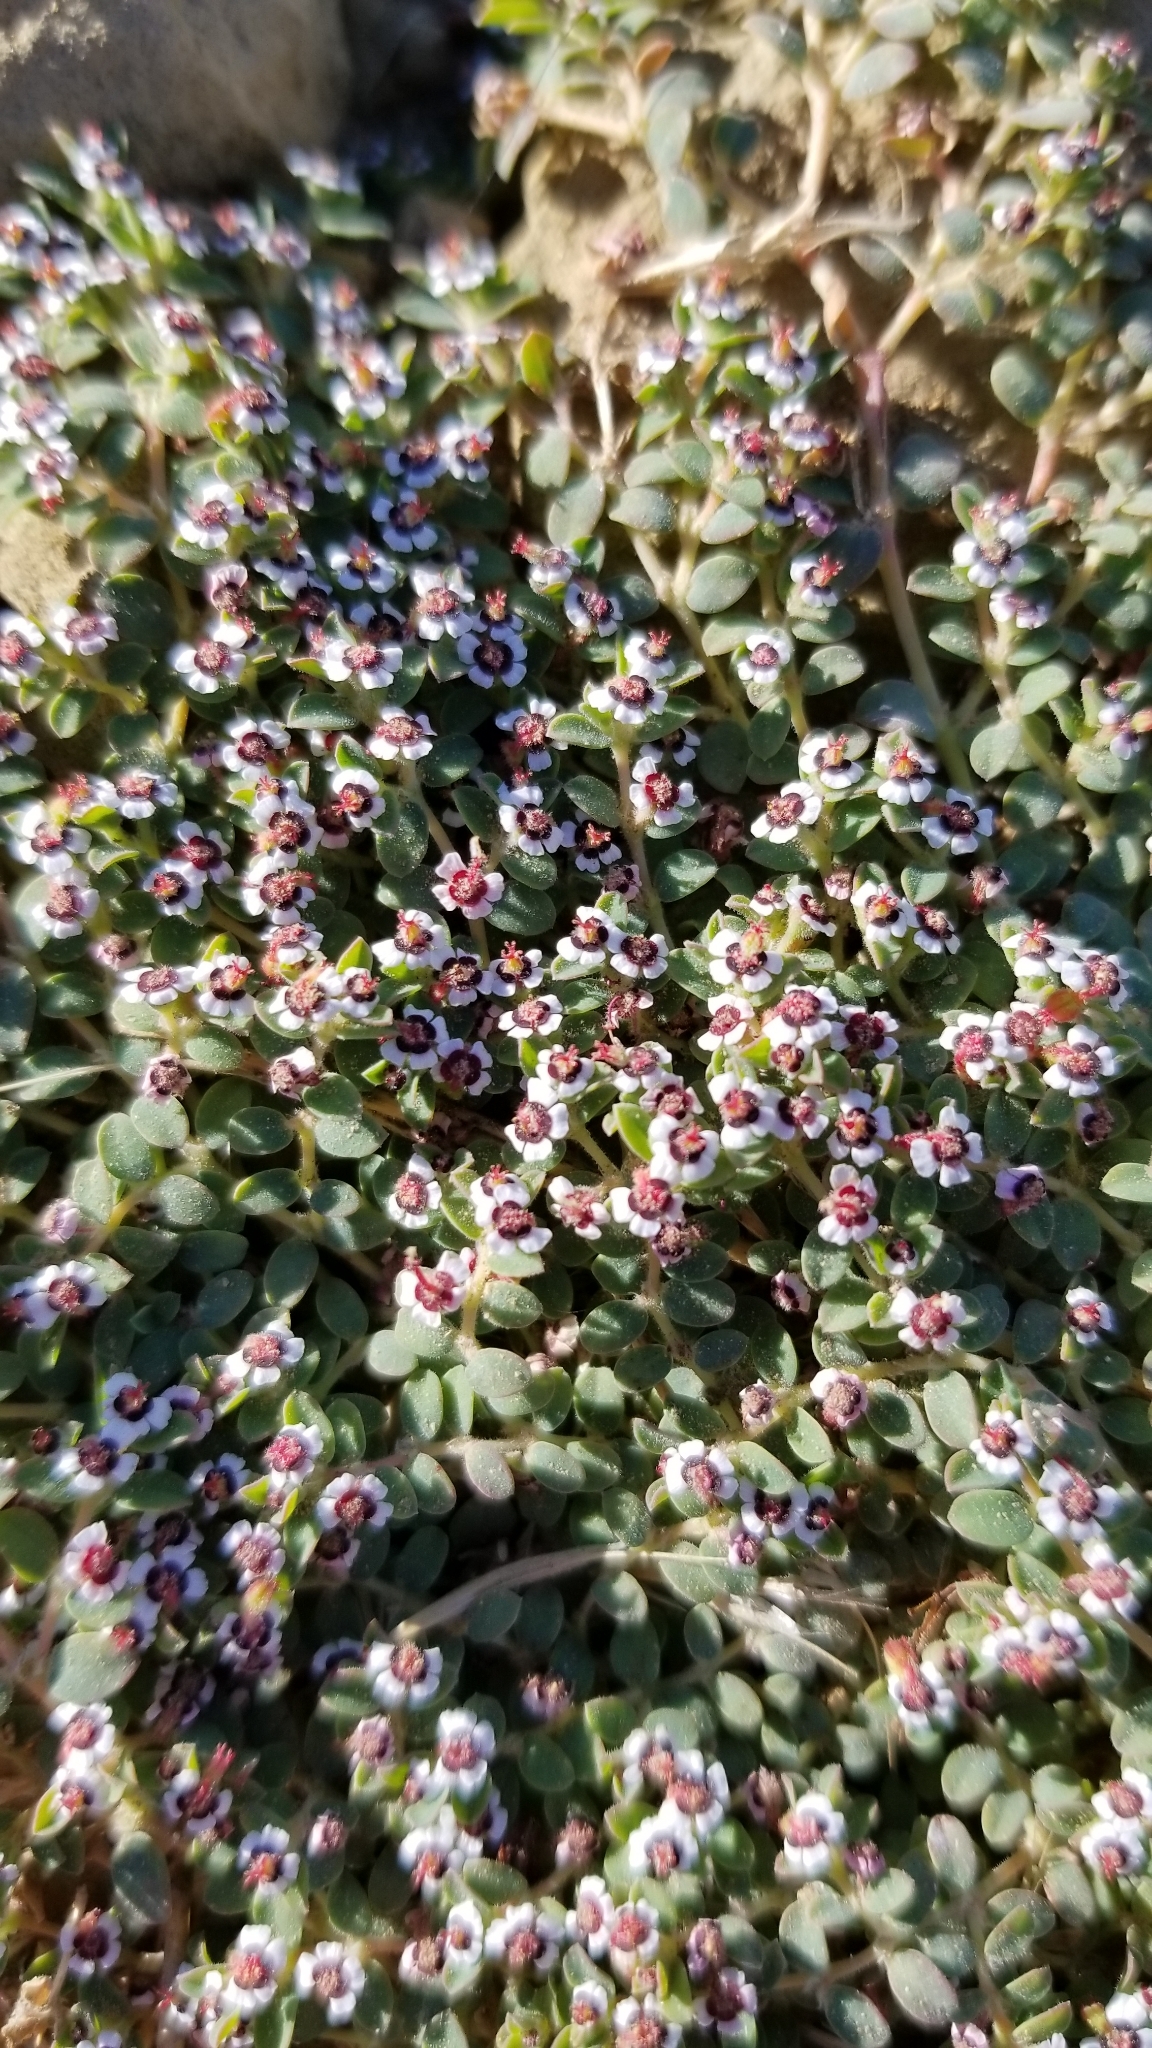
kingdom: Plantae
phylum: Tracheophyta
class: Magnoliopsida
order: Malpighiales
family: Euphorbiaceae
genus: Euphorbia
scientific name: Euphorbia polycarpa
